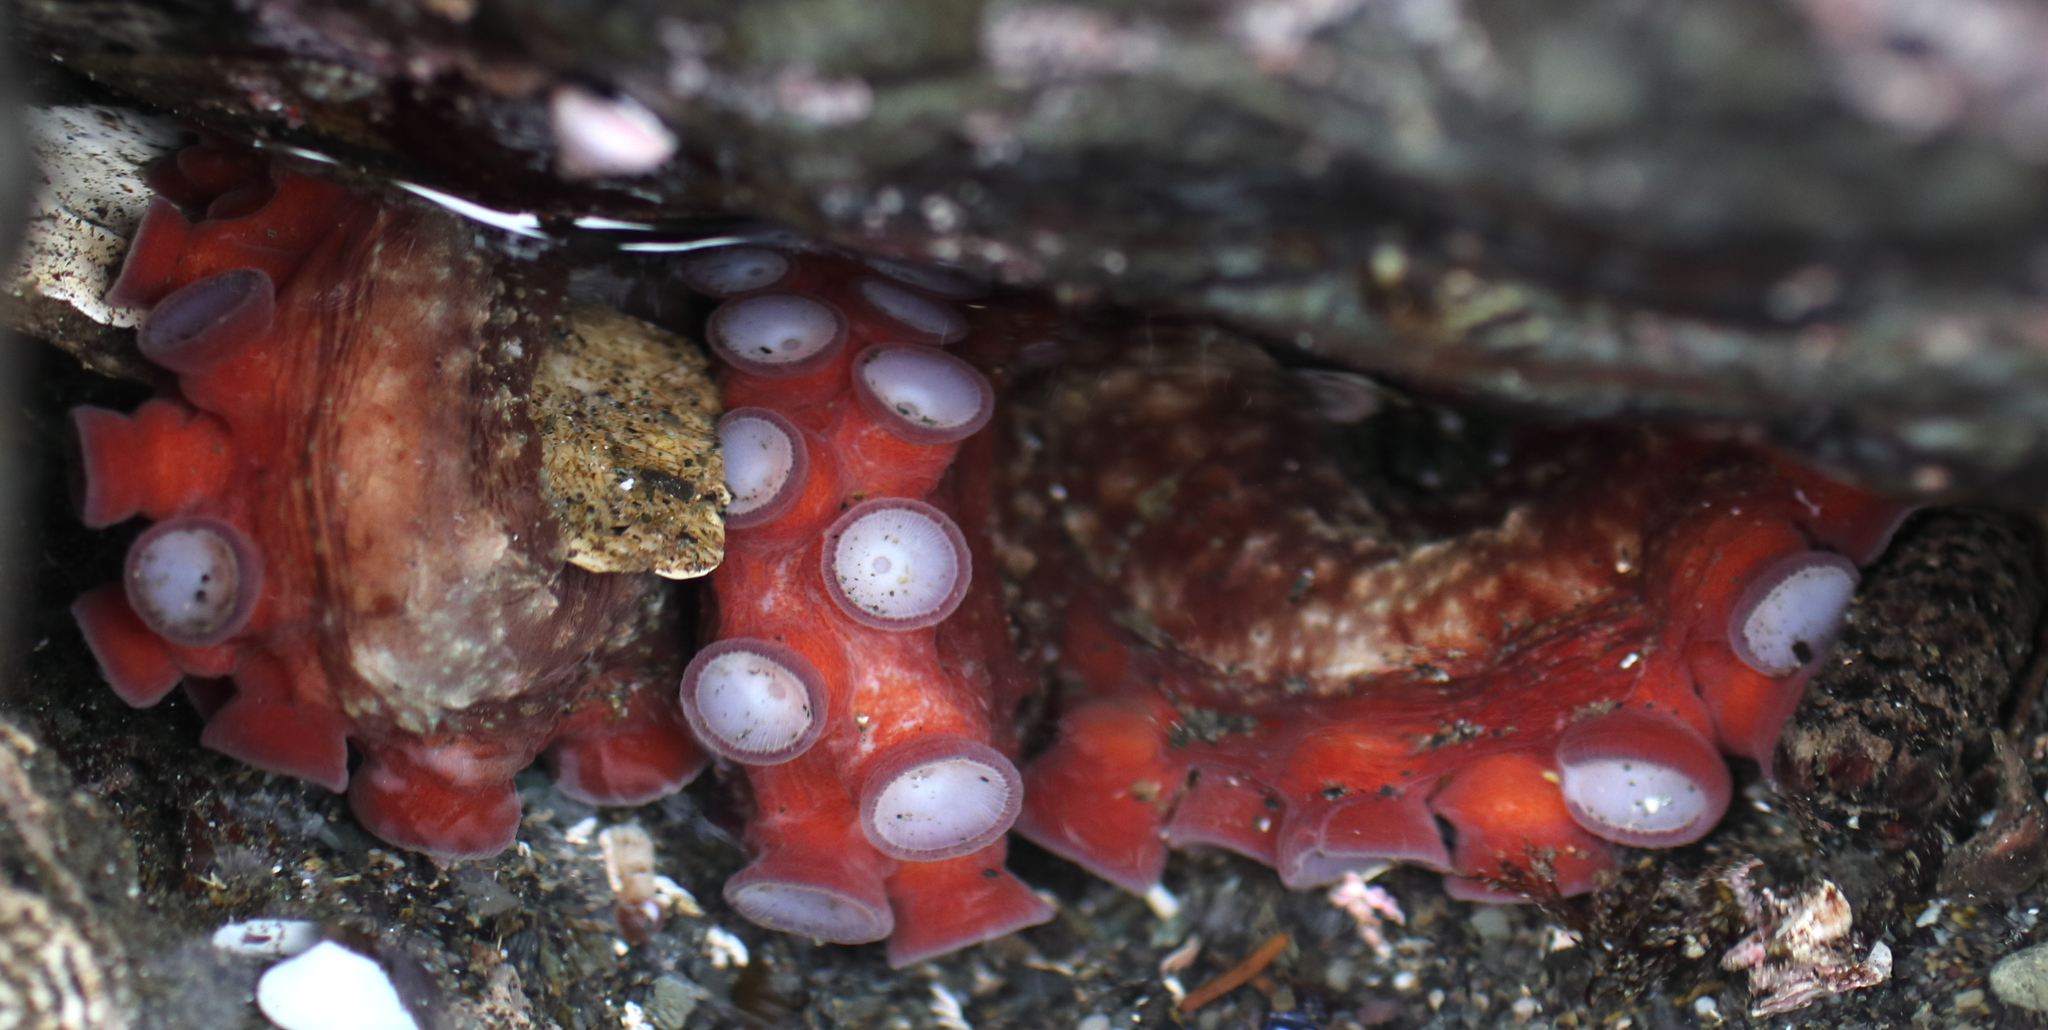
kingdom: Animalia
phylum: Mollusca
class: Cephalopoda
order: Octopoda
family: Enteroctopodidae
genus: Enteroctopus
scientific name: Enteroctopus dofleini
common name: Giant north pacific octopus
